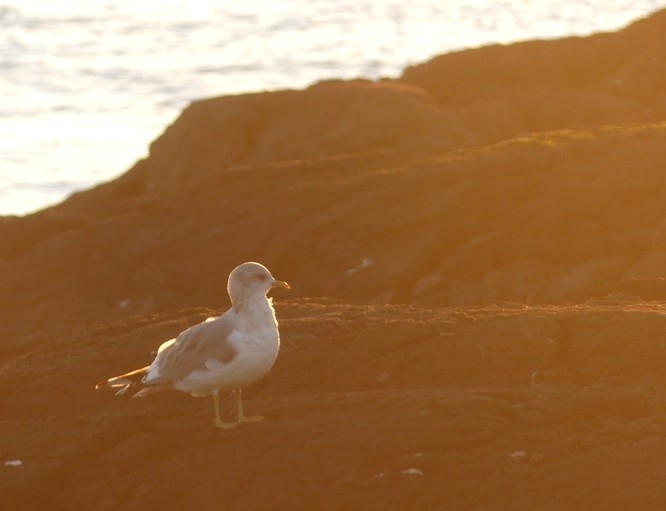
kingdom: Animalia
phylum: Chordata
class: Aves
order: Charadriiformes
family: Laridae
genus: Larus
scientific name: Larus brachyrhynchus
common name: Short-billed gull
